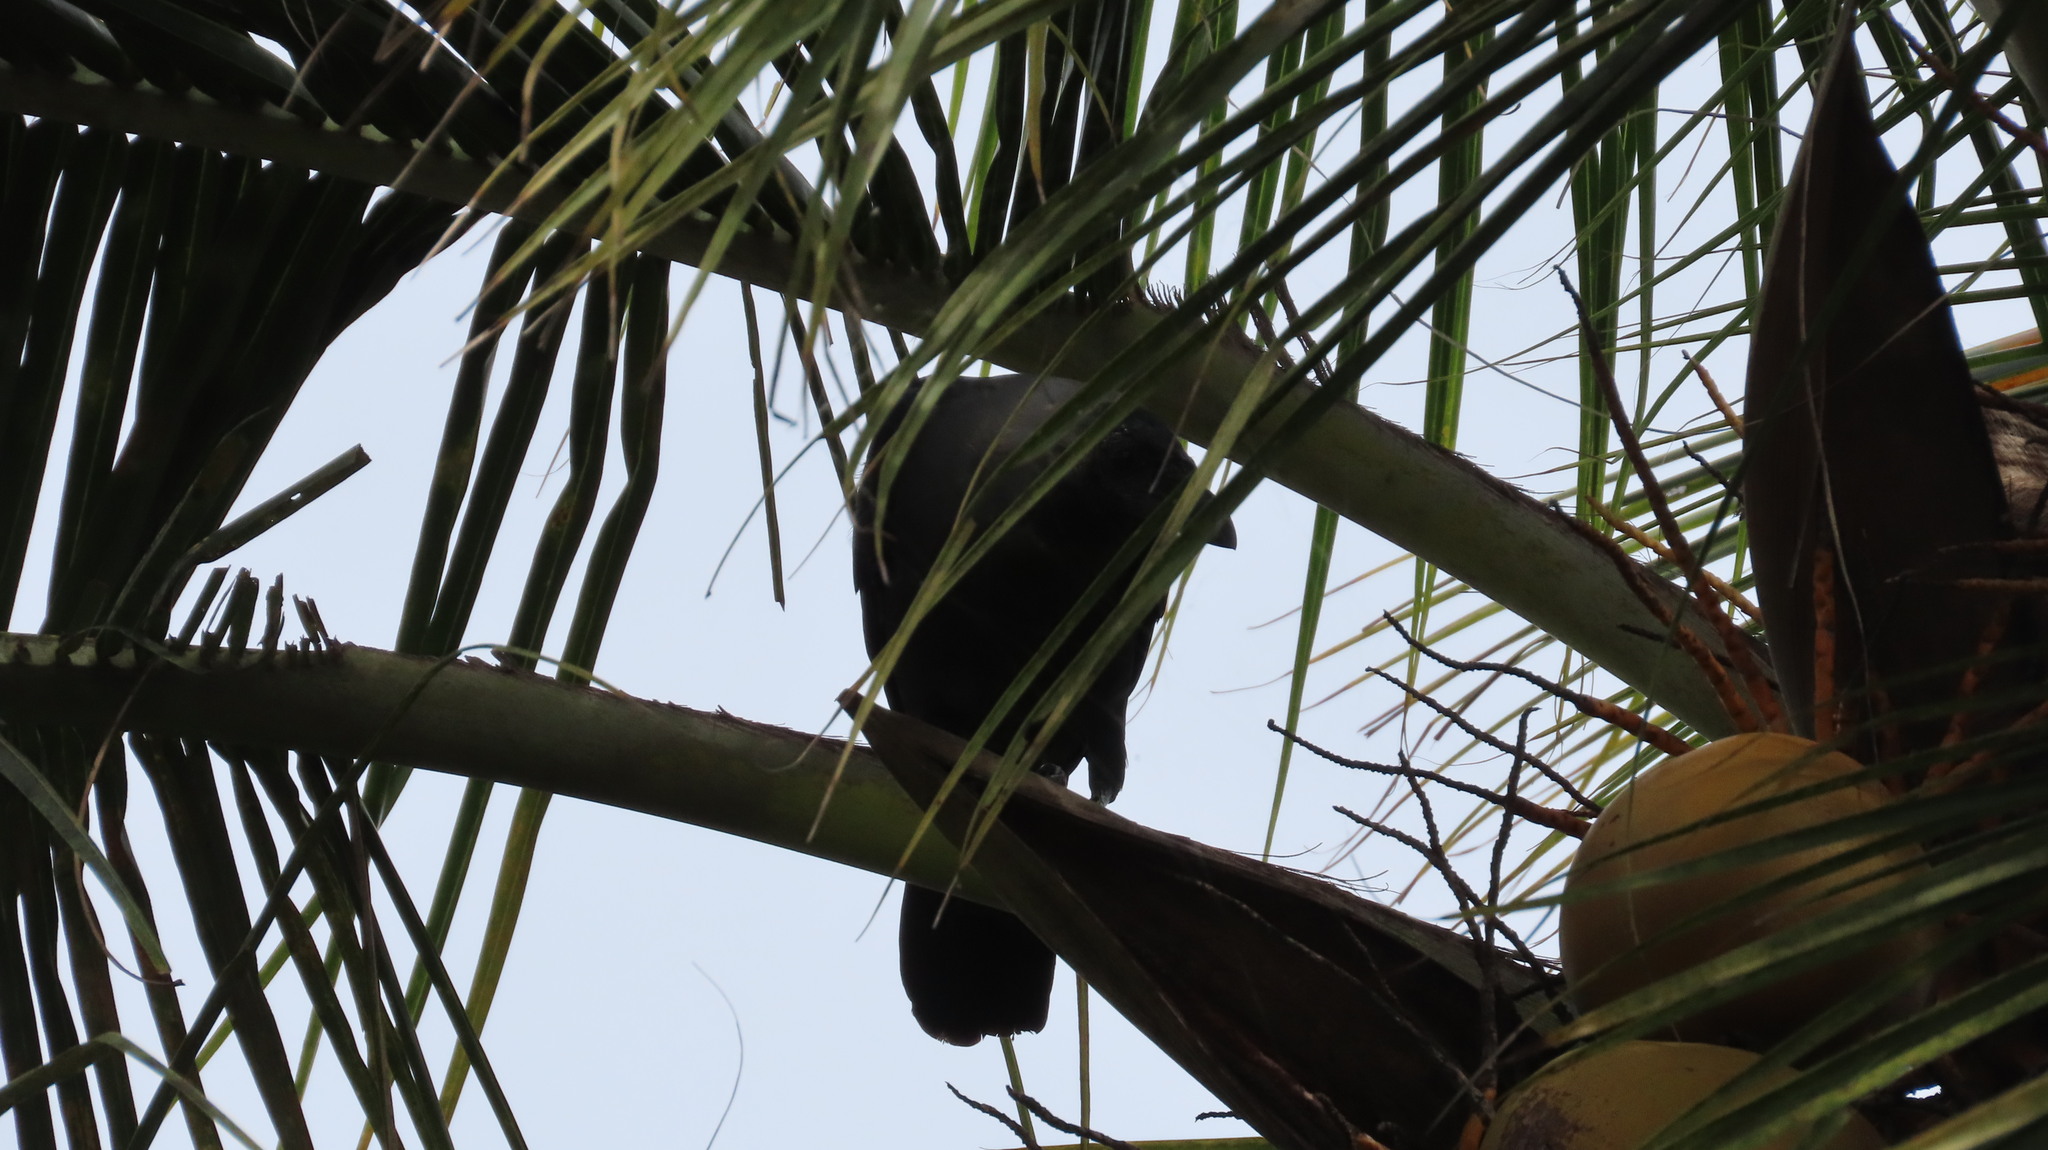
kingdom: Animalia
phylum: Chordata
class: Aves
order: Passeriformes
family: Corvidae
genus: Corvus
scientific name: Corvus splendens
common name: House crow
